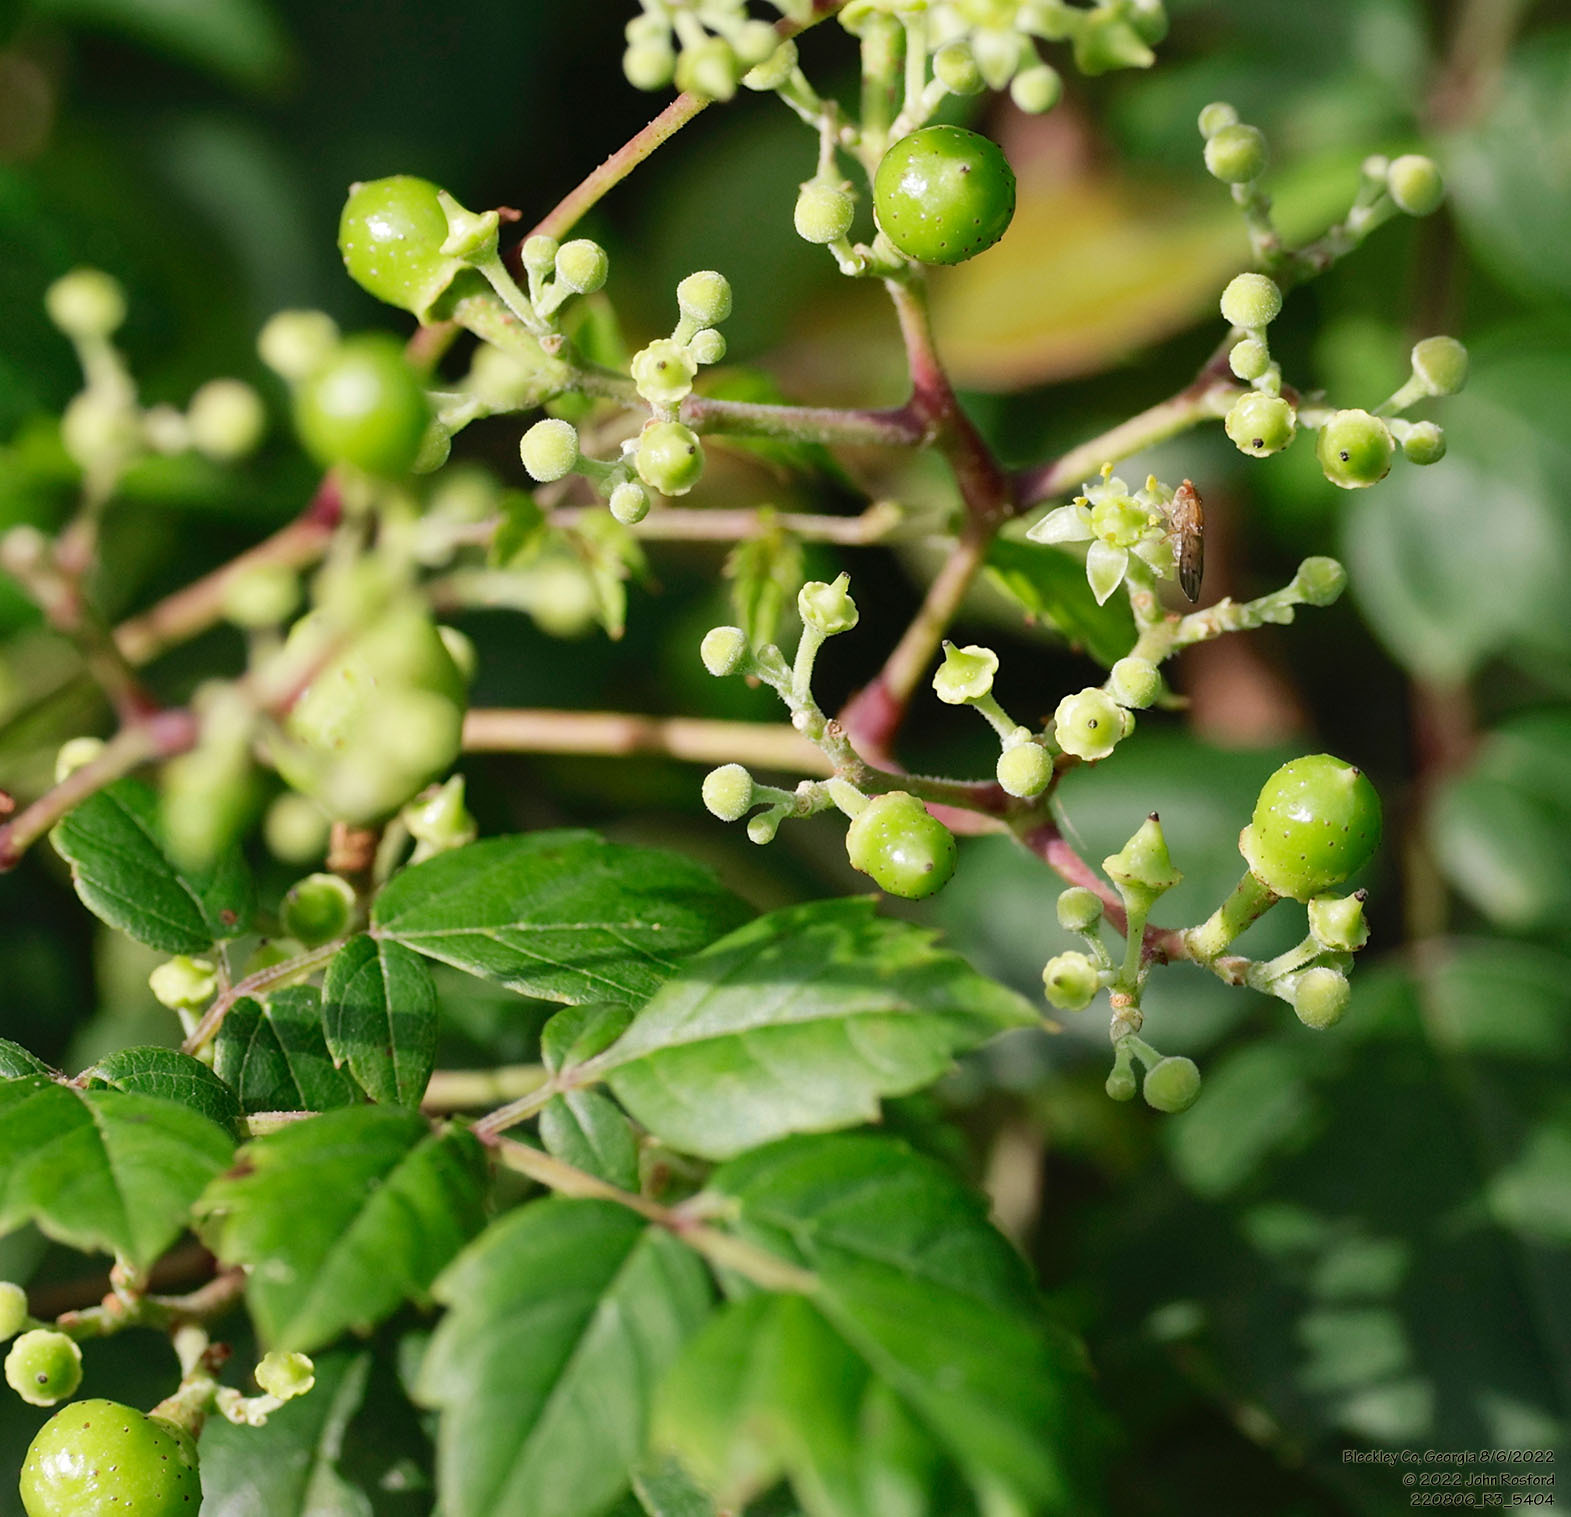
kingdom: Plantae
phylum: Tracheophyta
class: Magnoliopsida
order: Vitales
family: Vitaceae
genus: Nekemias
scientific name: Nekemias arborea
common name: Peppervine
